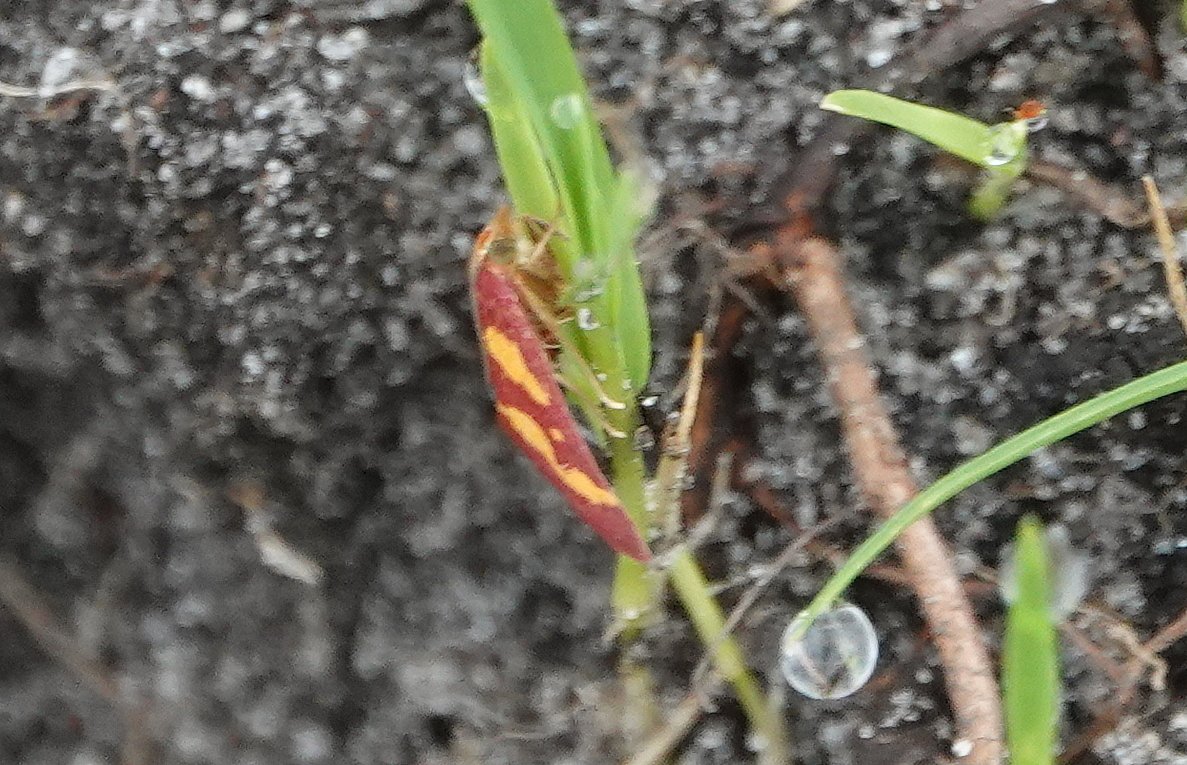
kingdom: Animalia
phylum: Arthropoda
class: Insecta
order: Lepidoptera
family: Crambidae
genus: Pyrausta
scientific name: Pyrausta tyralis
